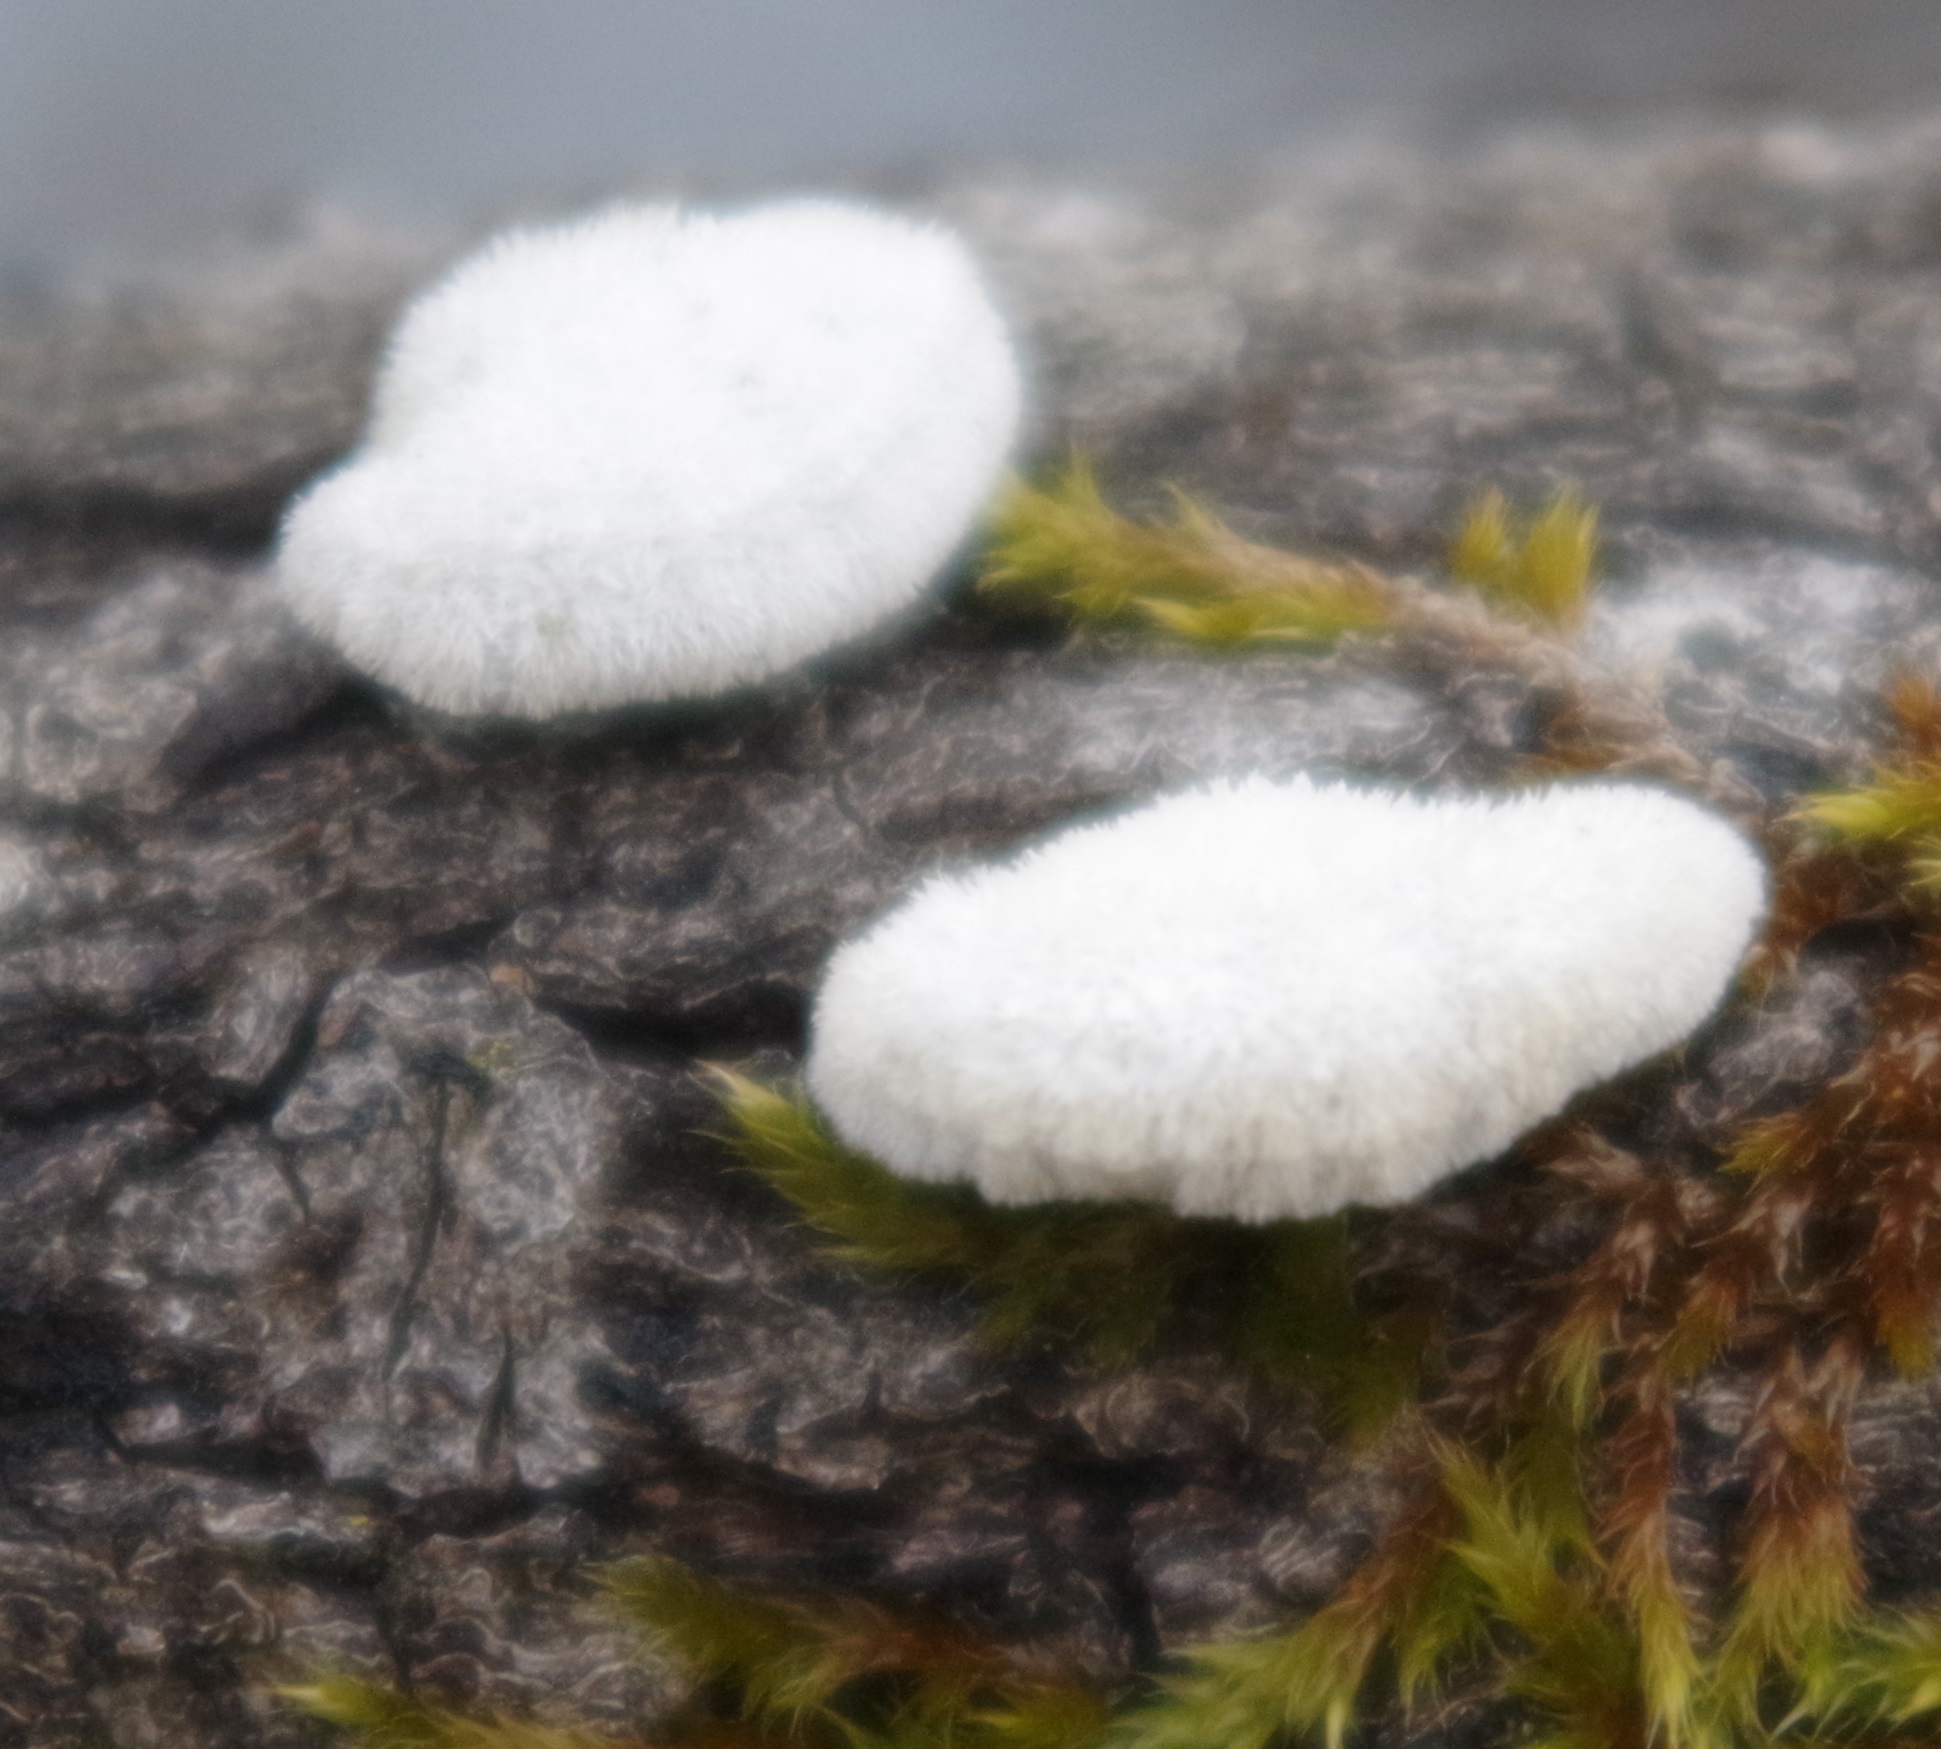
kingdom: Fungi
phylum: Basidiomycota
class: Agaricomycetes
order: Agaricales
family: Schizophyllaceae
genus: Schizophyllum
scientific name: Schizophyllum commune
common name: Common porecrust
